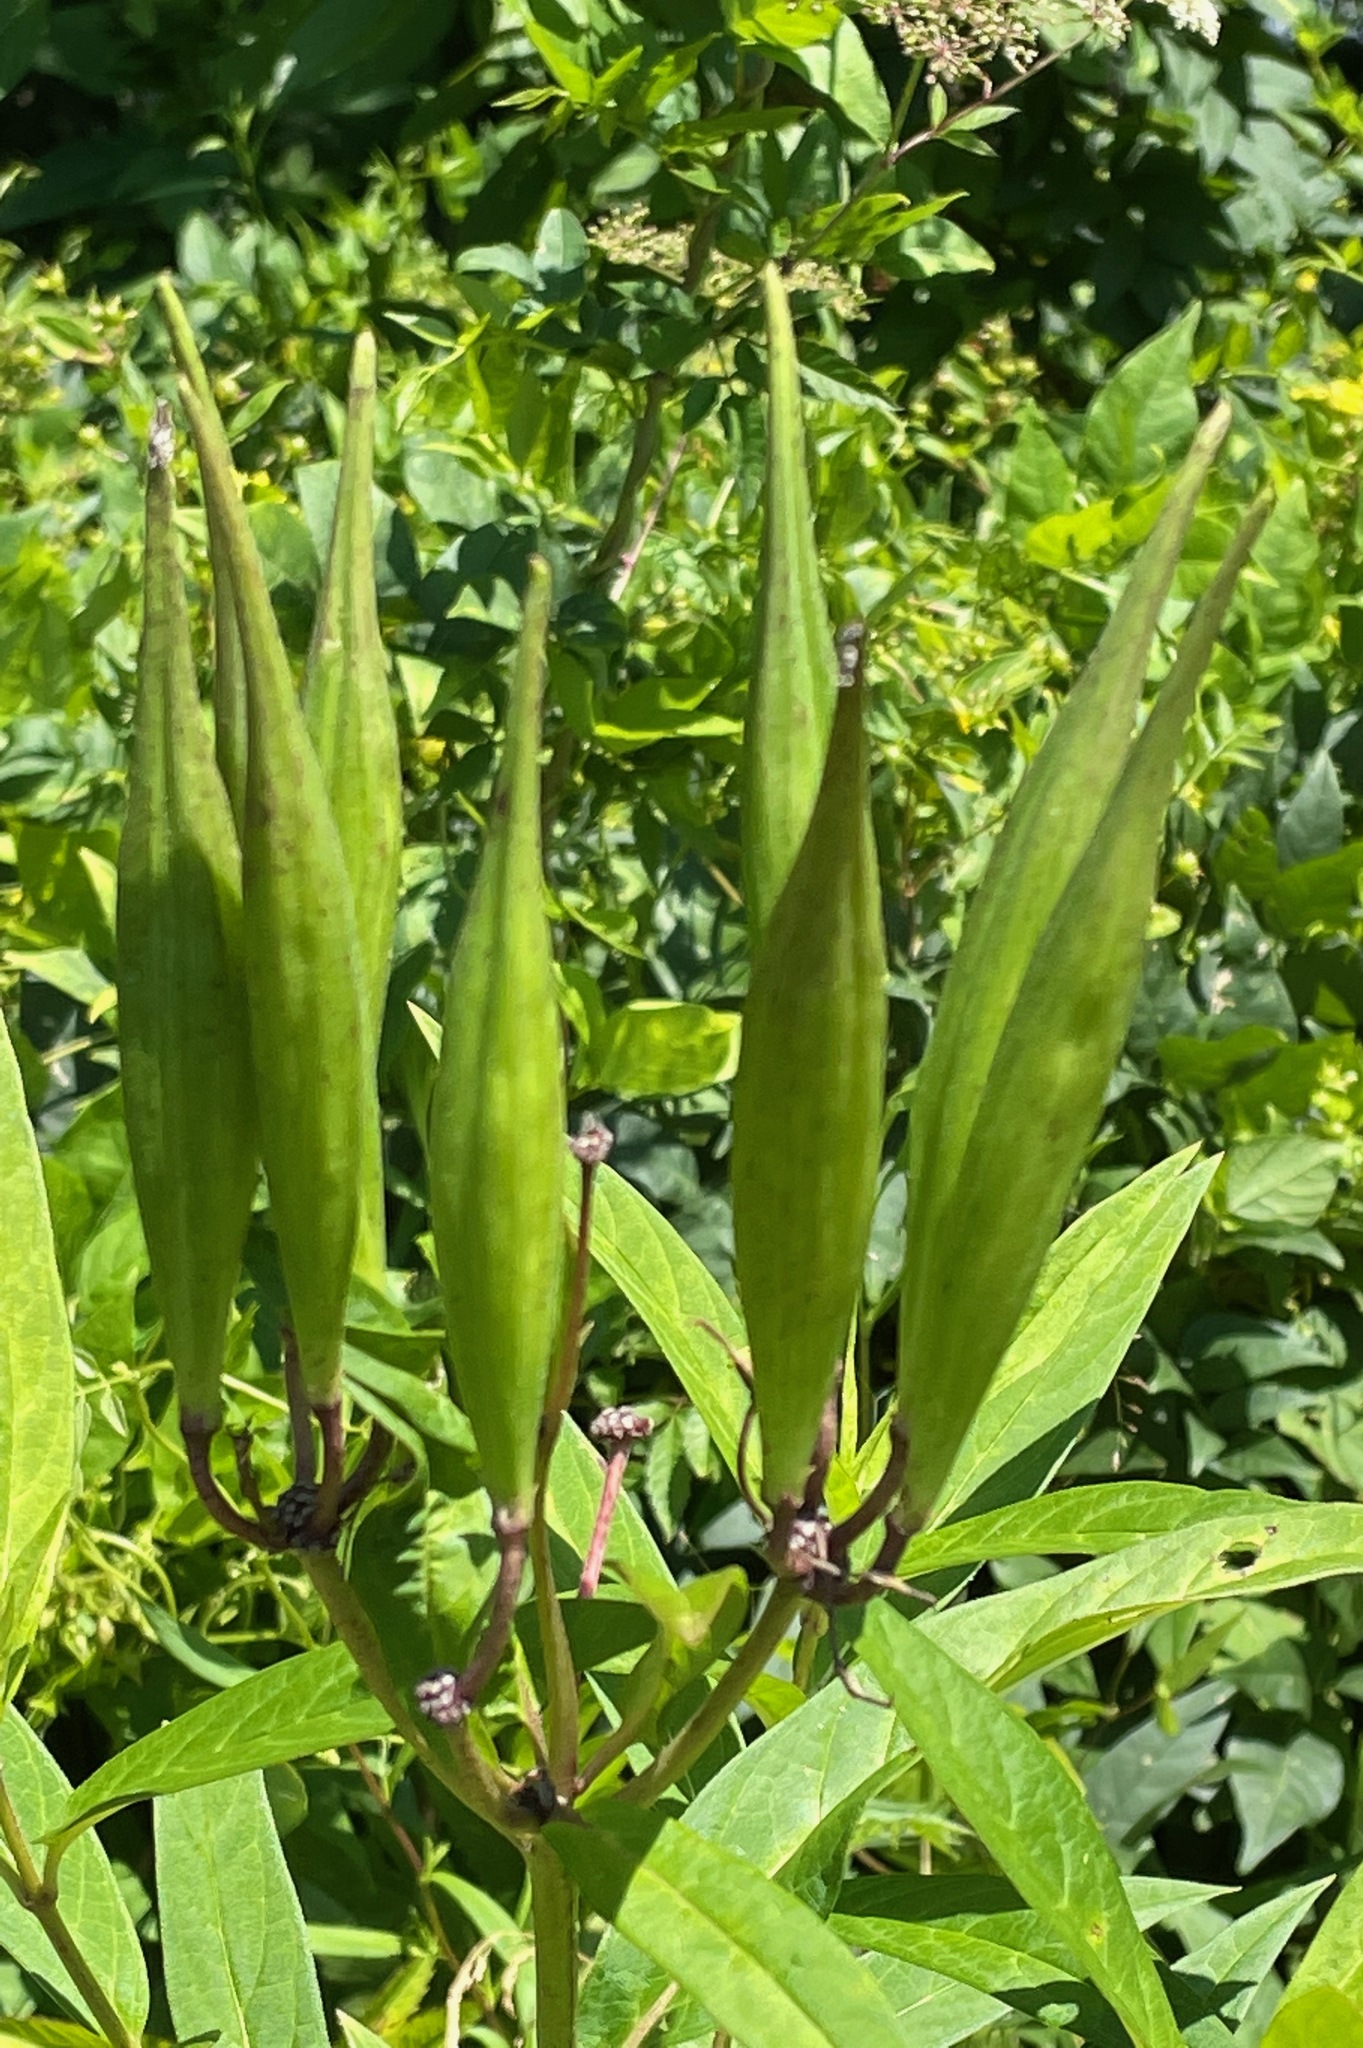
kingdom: Plantae
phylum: Tracheophyta
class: Magnoliopsida
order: Gentianales
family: Apocynaceae
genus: Asclepias
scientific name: Asclepias incarnata
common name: Swamp milkweed
